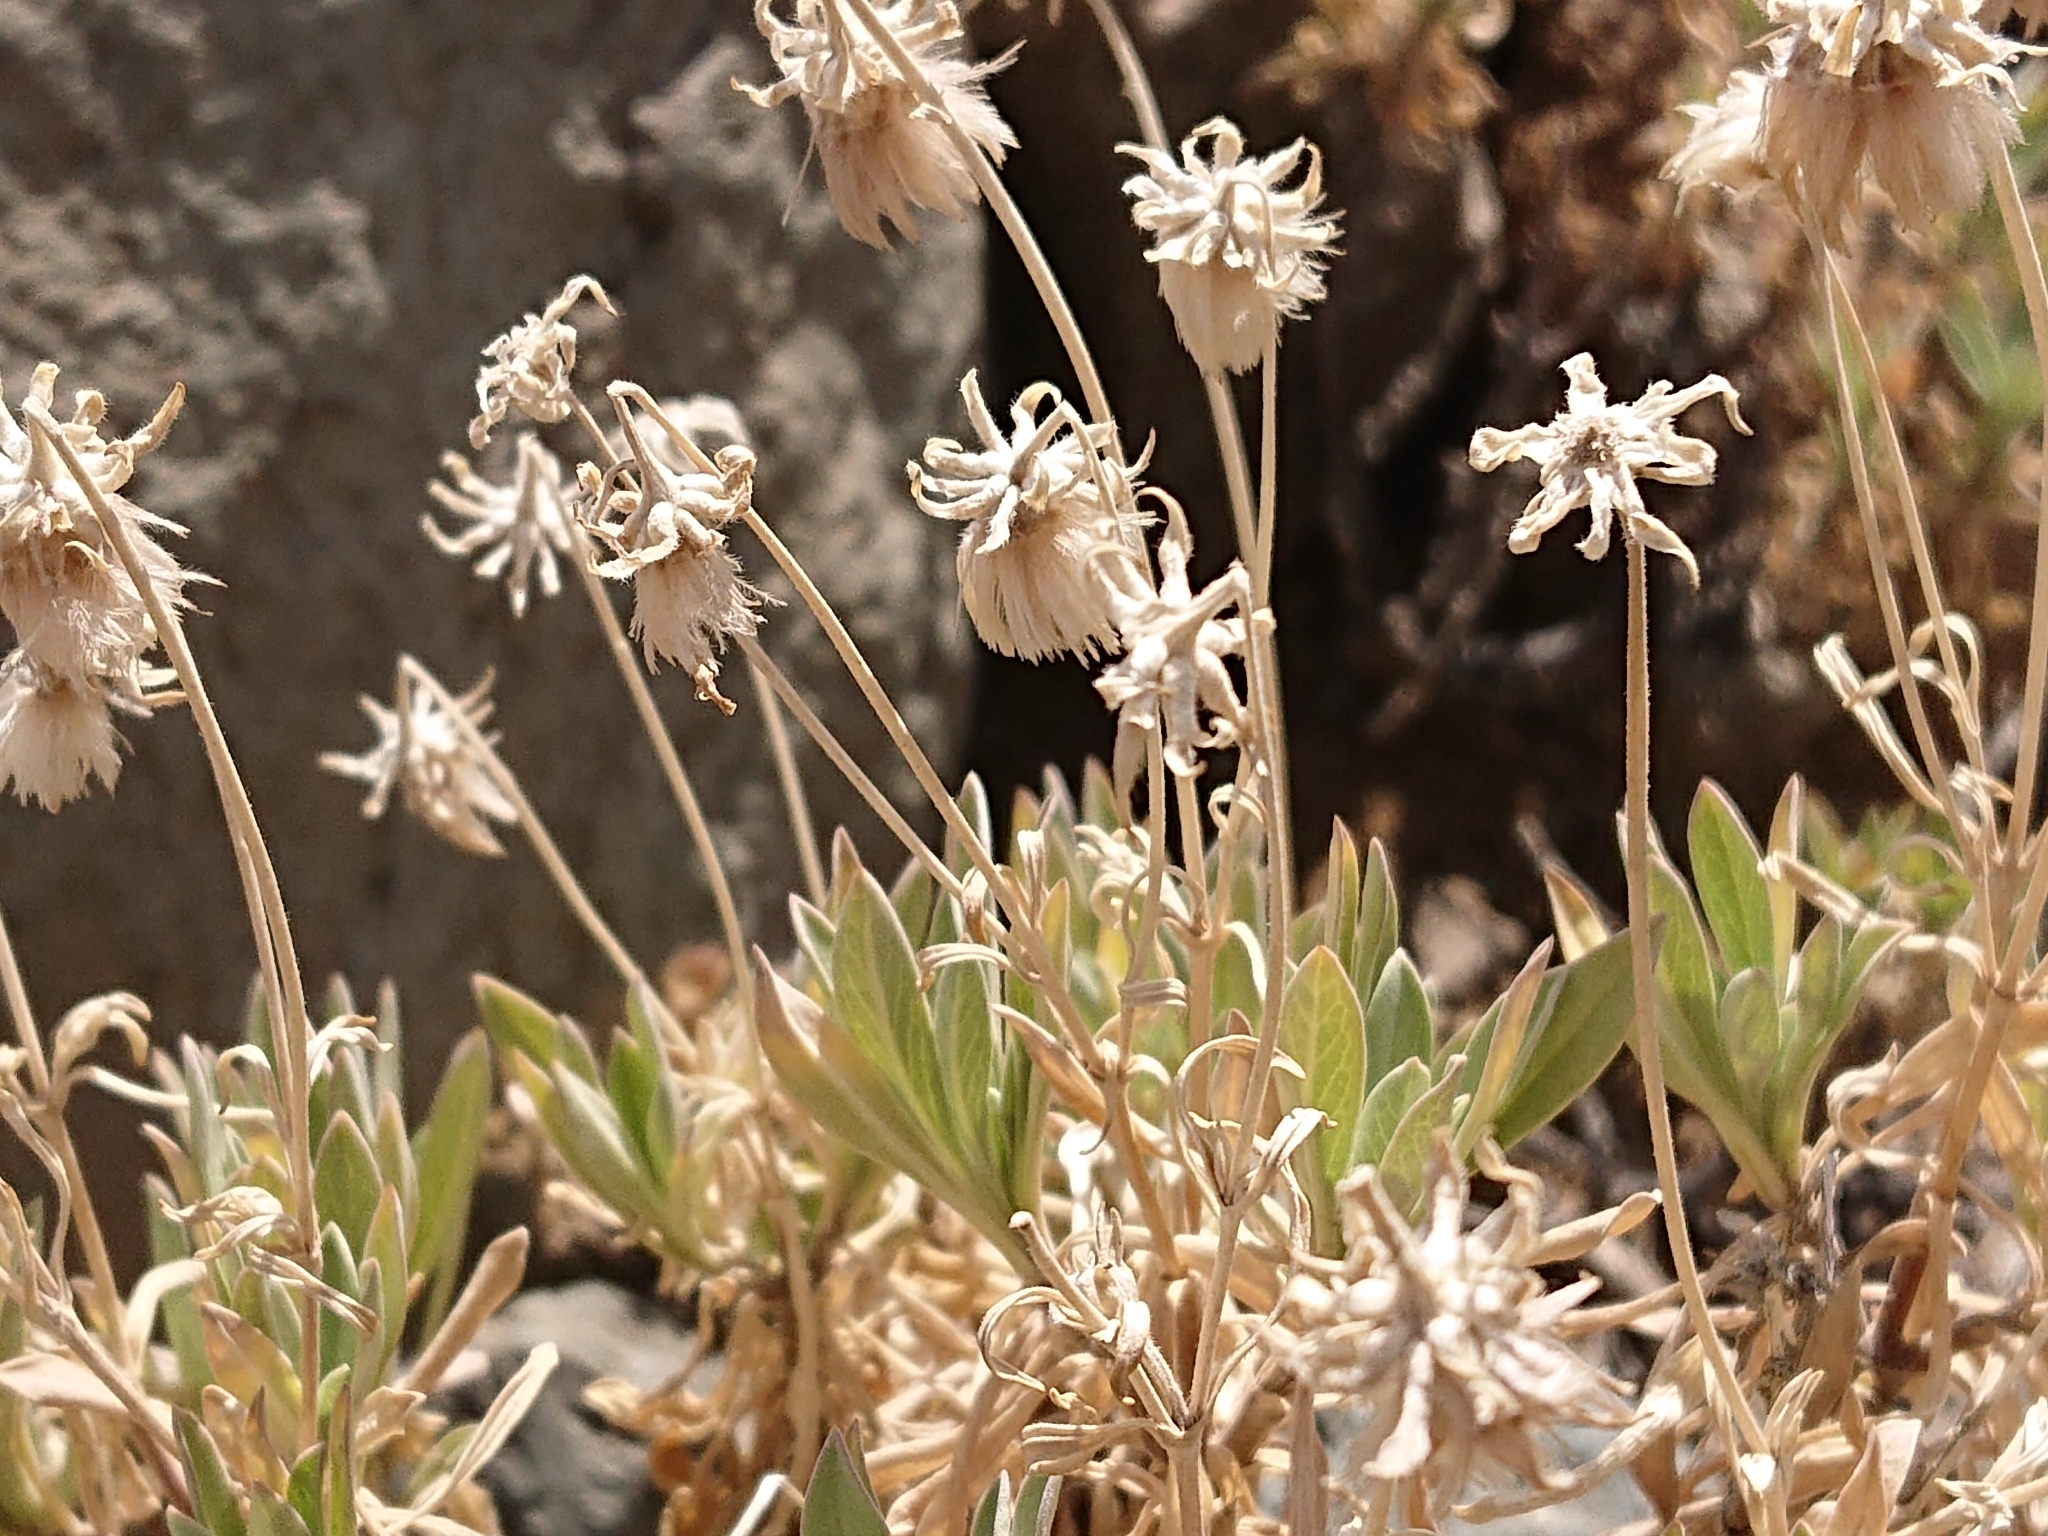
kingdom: Plantae
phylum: Tracheophyta
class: Magnoliopsida
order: Dipsacales
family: Caprifoliaceae
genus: Pterocephalus
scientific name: Pterocephalus lasiospermus
